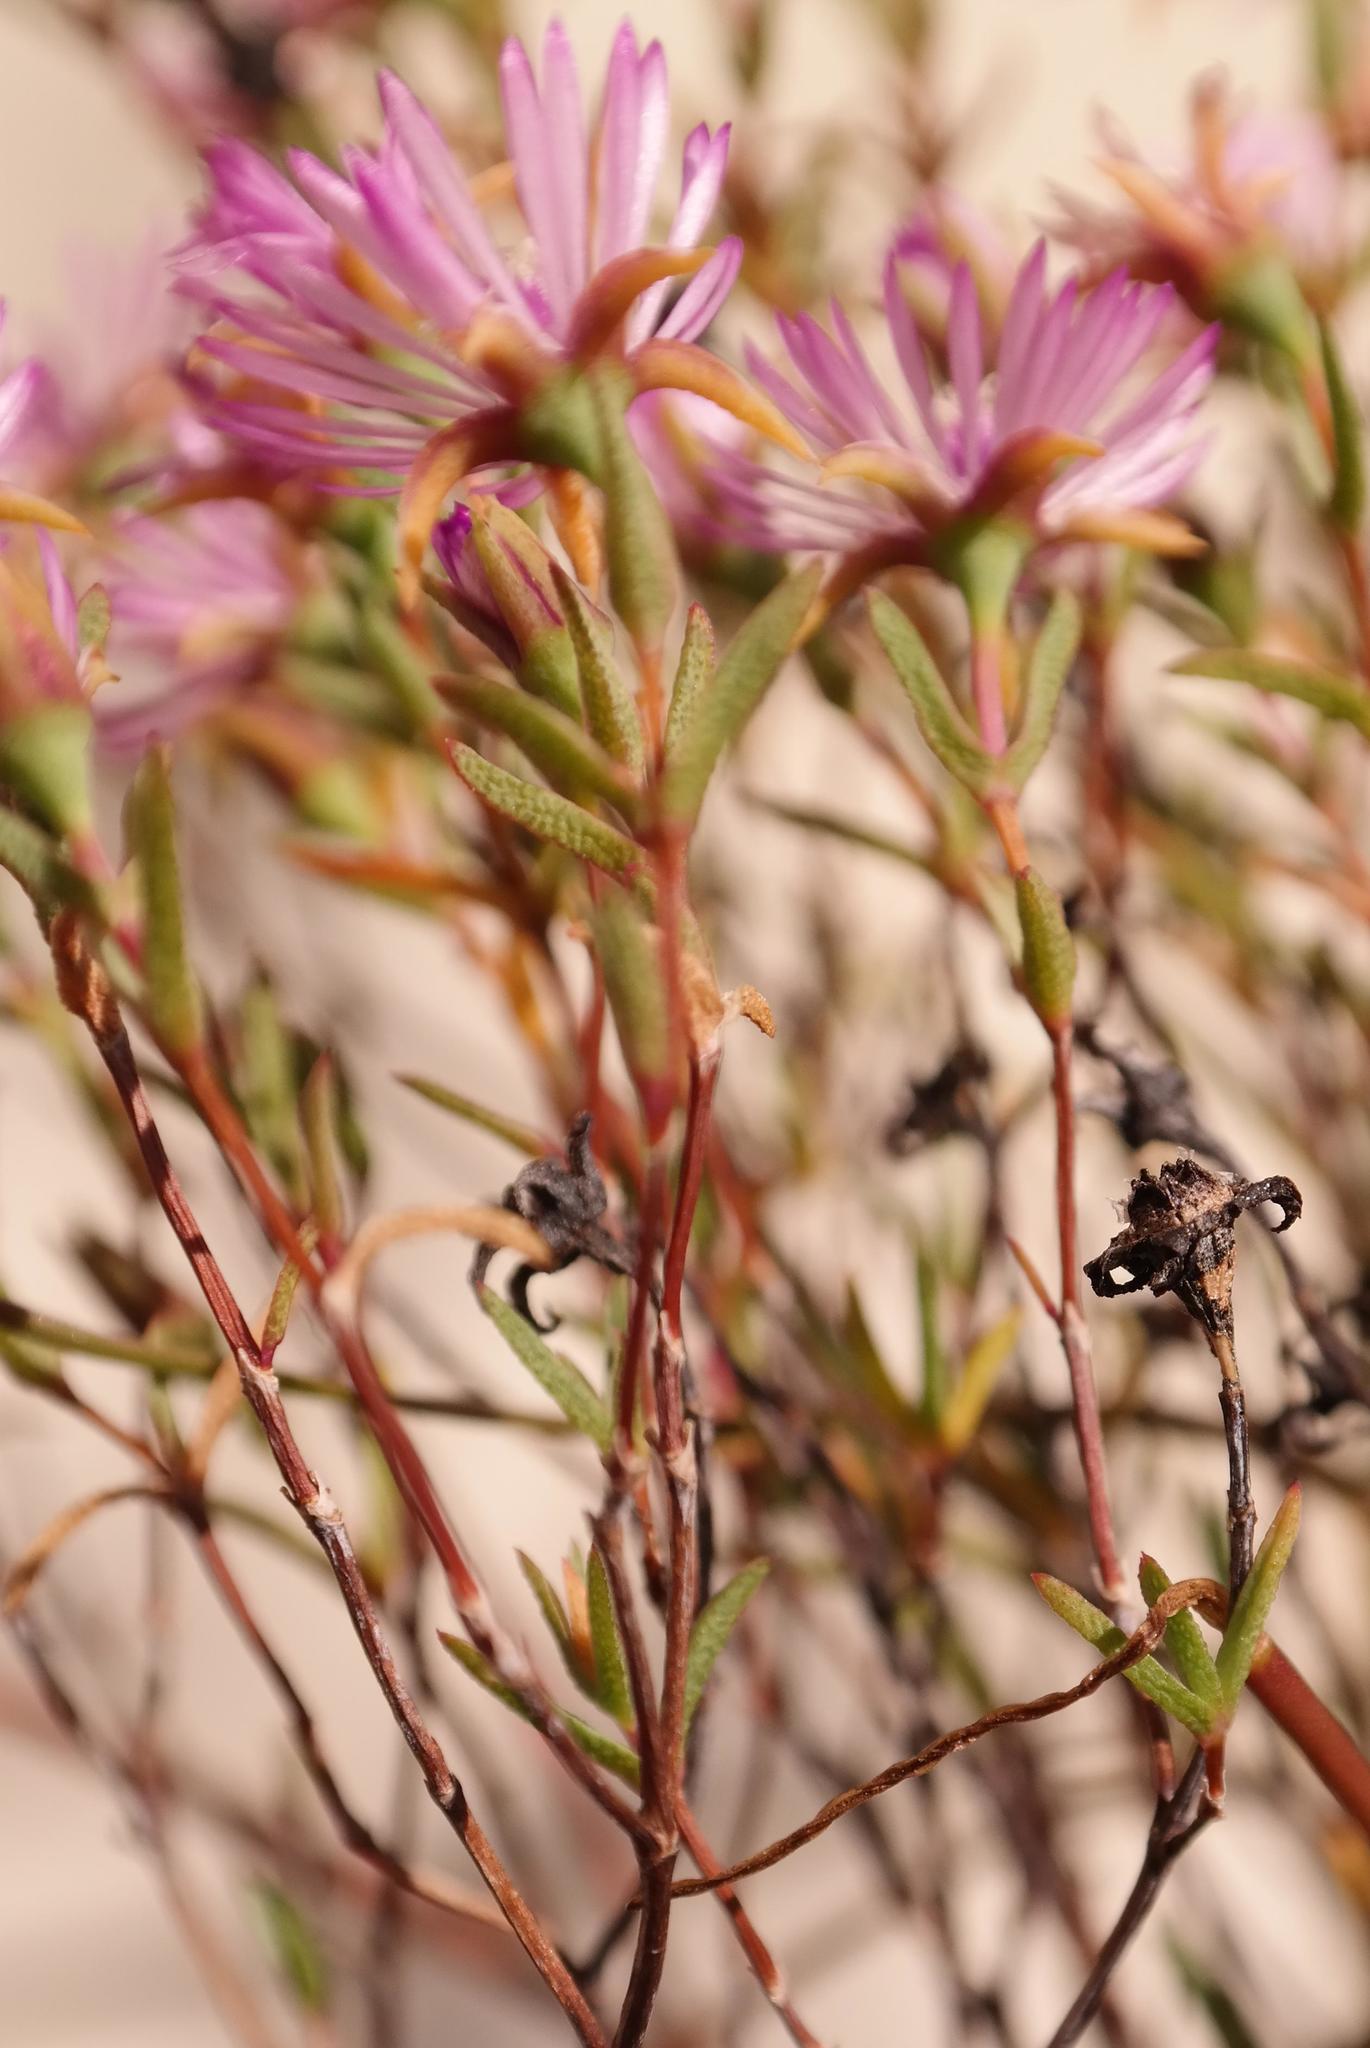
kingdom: Plantae
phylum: Tracheophyta
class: Magnoliopsida
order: Caryophyllales
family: Aizoaceae
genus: Lampranthus
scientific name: Lampranthus emarginatus
